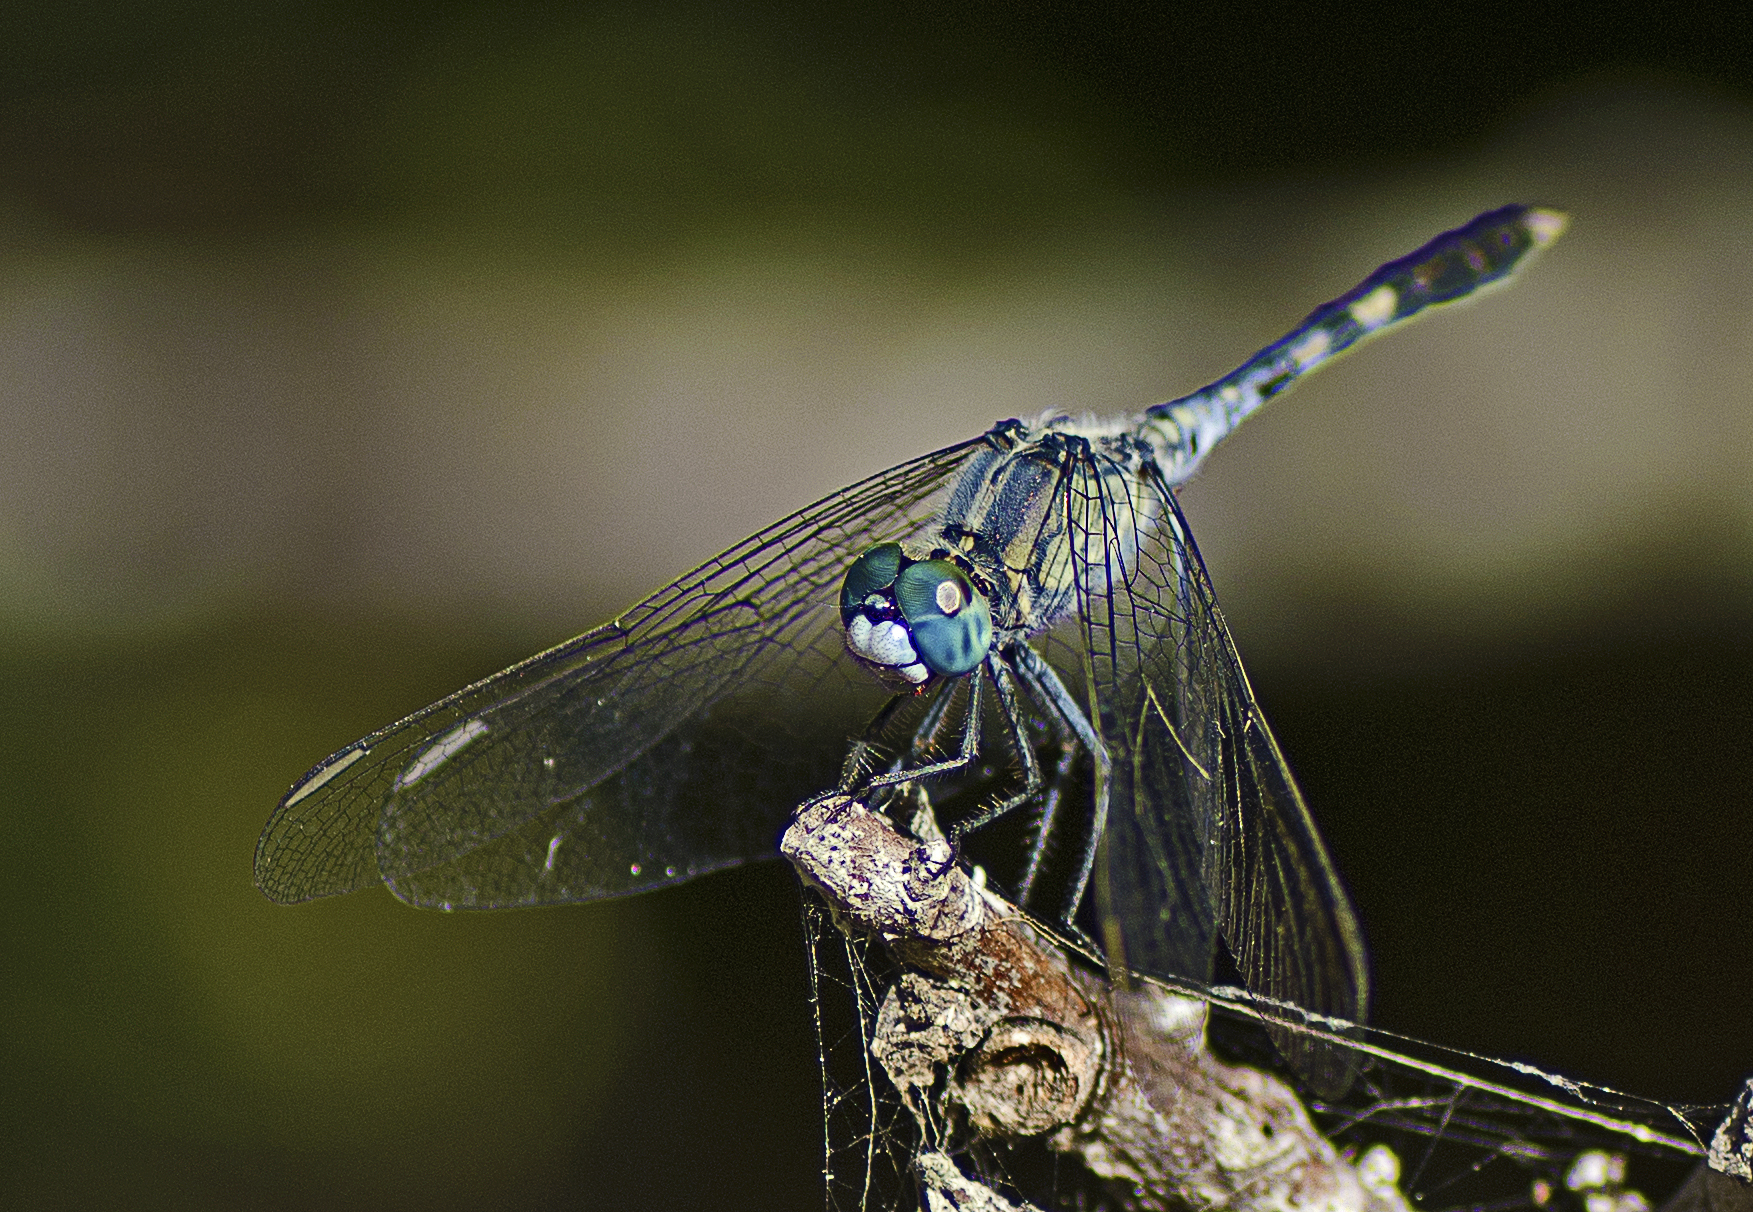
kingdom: Animalia
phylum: Arthropoda
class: Insecta
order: Odonata
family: Libellulidae
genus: Diplacodes
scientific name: Diplacodes trivialis
